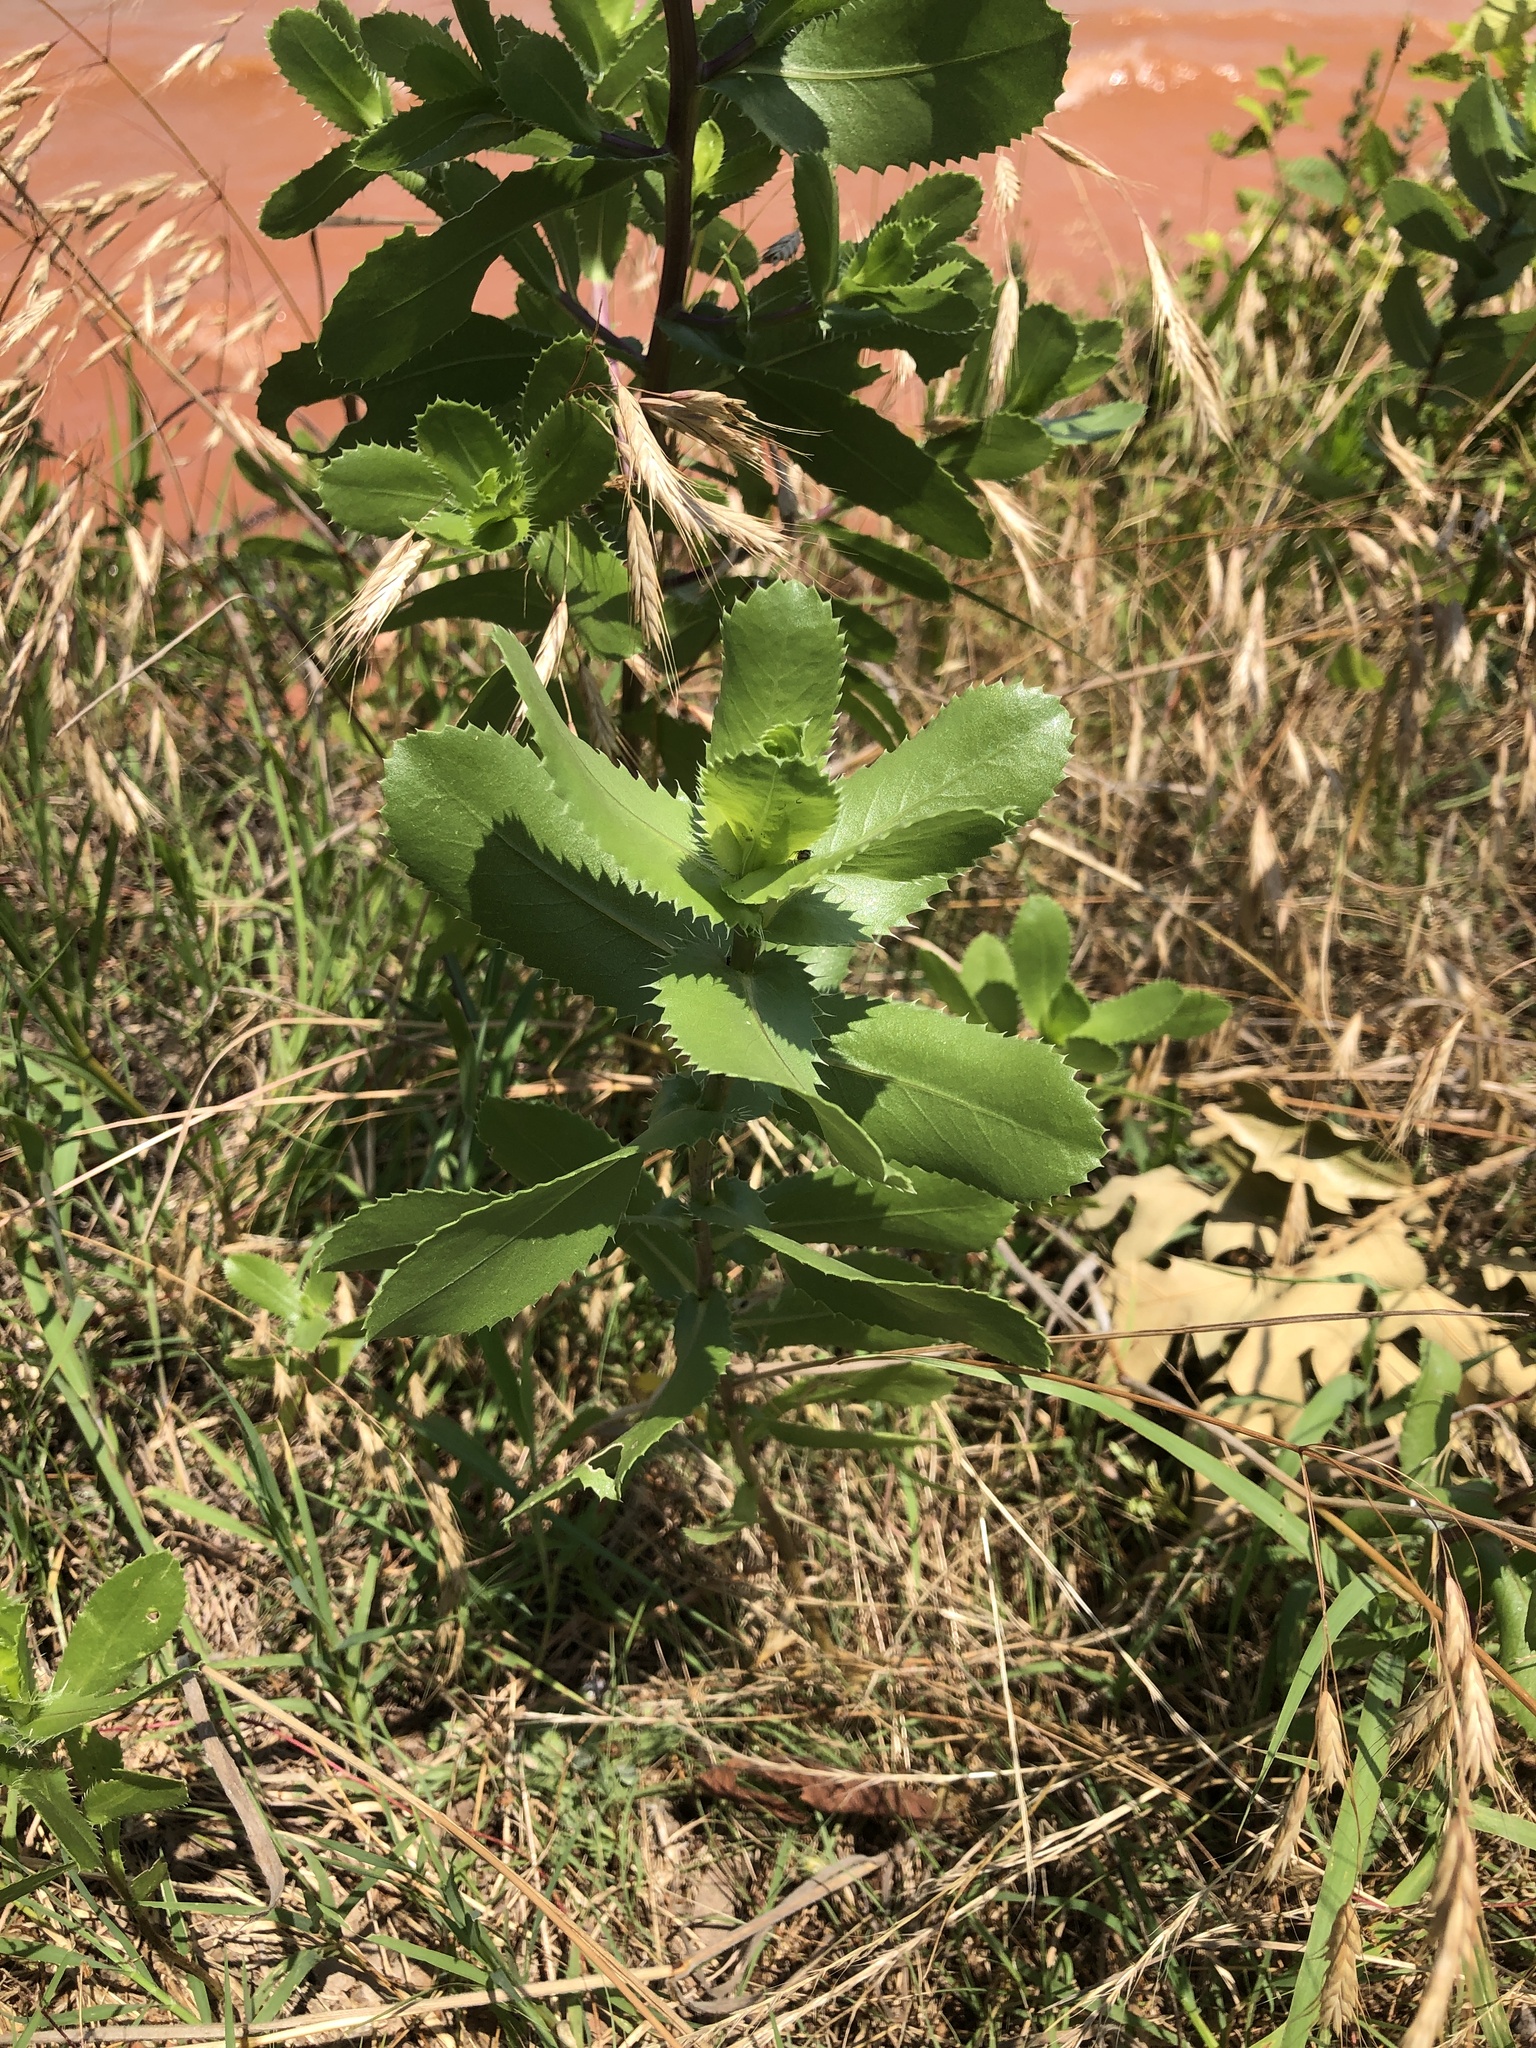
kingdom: Plantae
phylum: Tracheophyta
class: Magnoliopsida
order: Asterales
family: Asteraceae
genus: Grindelia
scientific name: Grindelia ciliata
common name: Goldenweed
